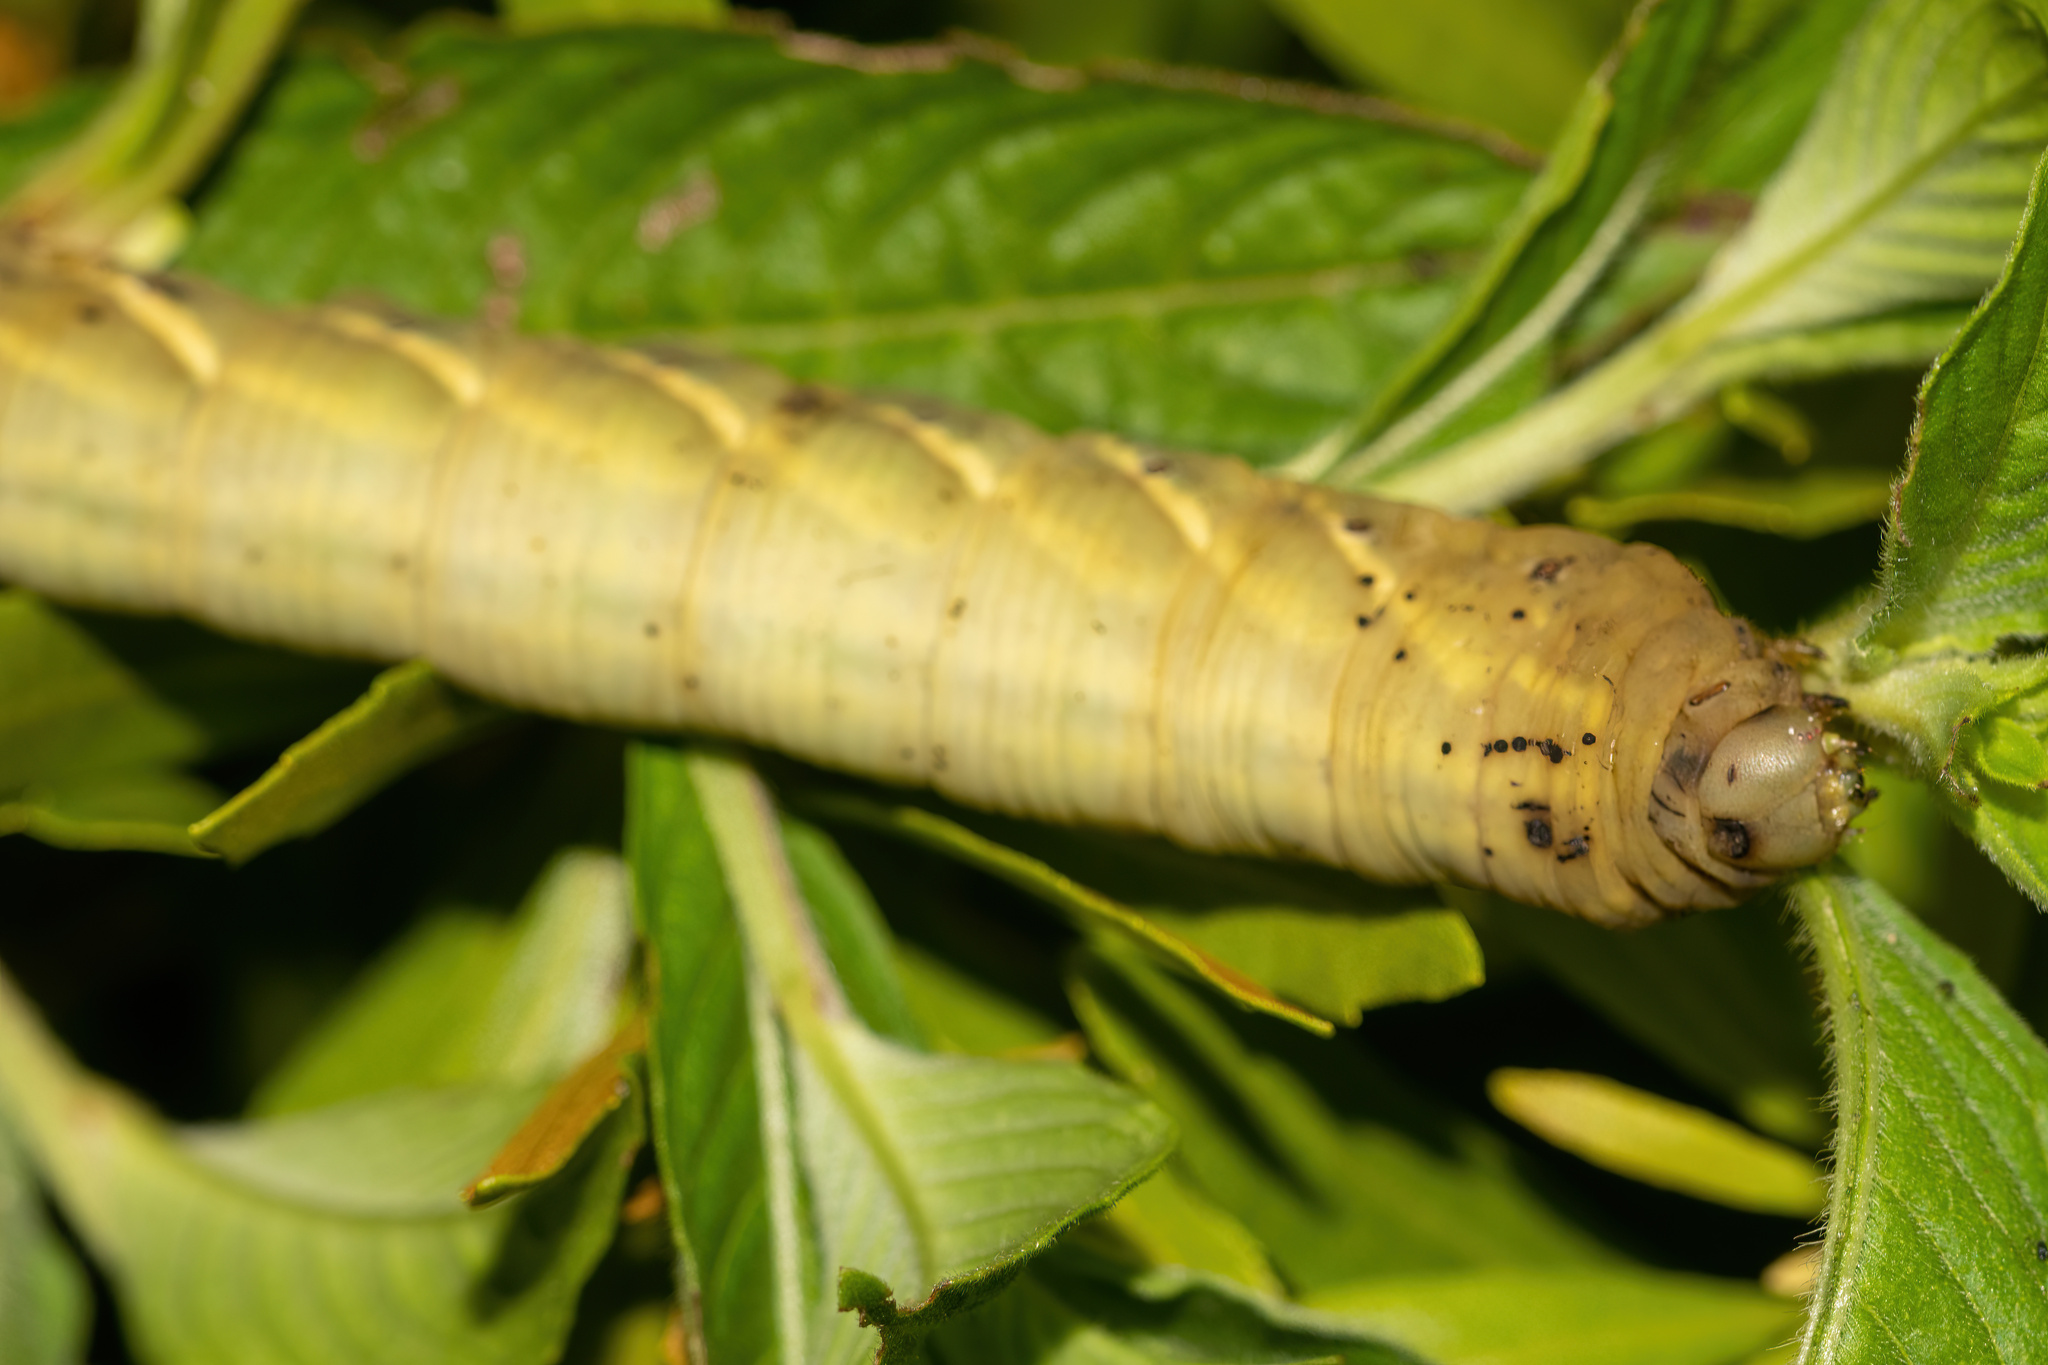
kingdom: Animalia
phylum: Arthropoda
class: Insecta
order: Lepidoptera
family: Sphingidae
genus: Eumorpha
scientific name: Eumorpha fasciatus
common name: Banded sphinx
